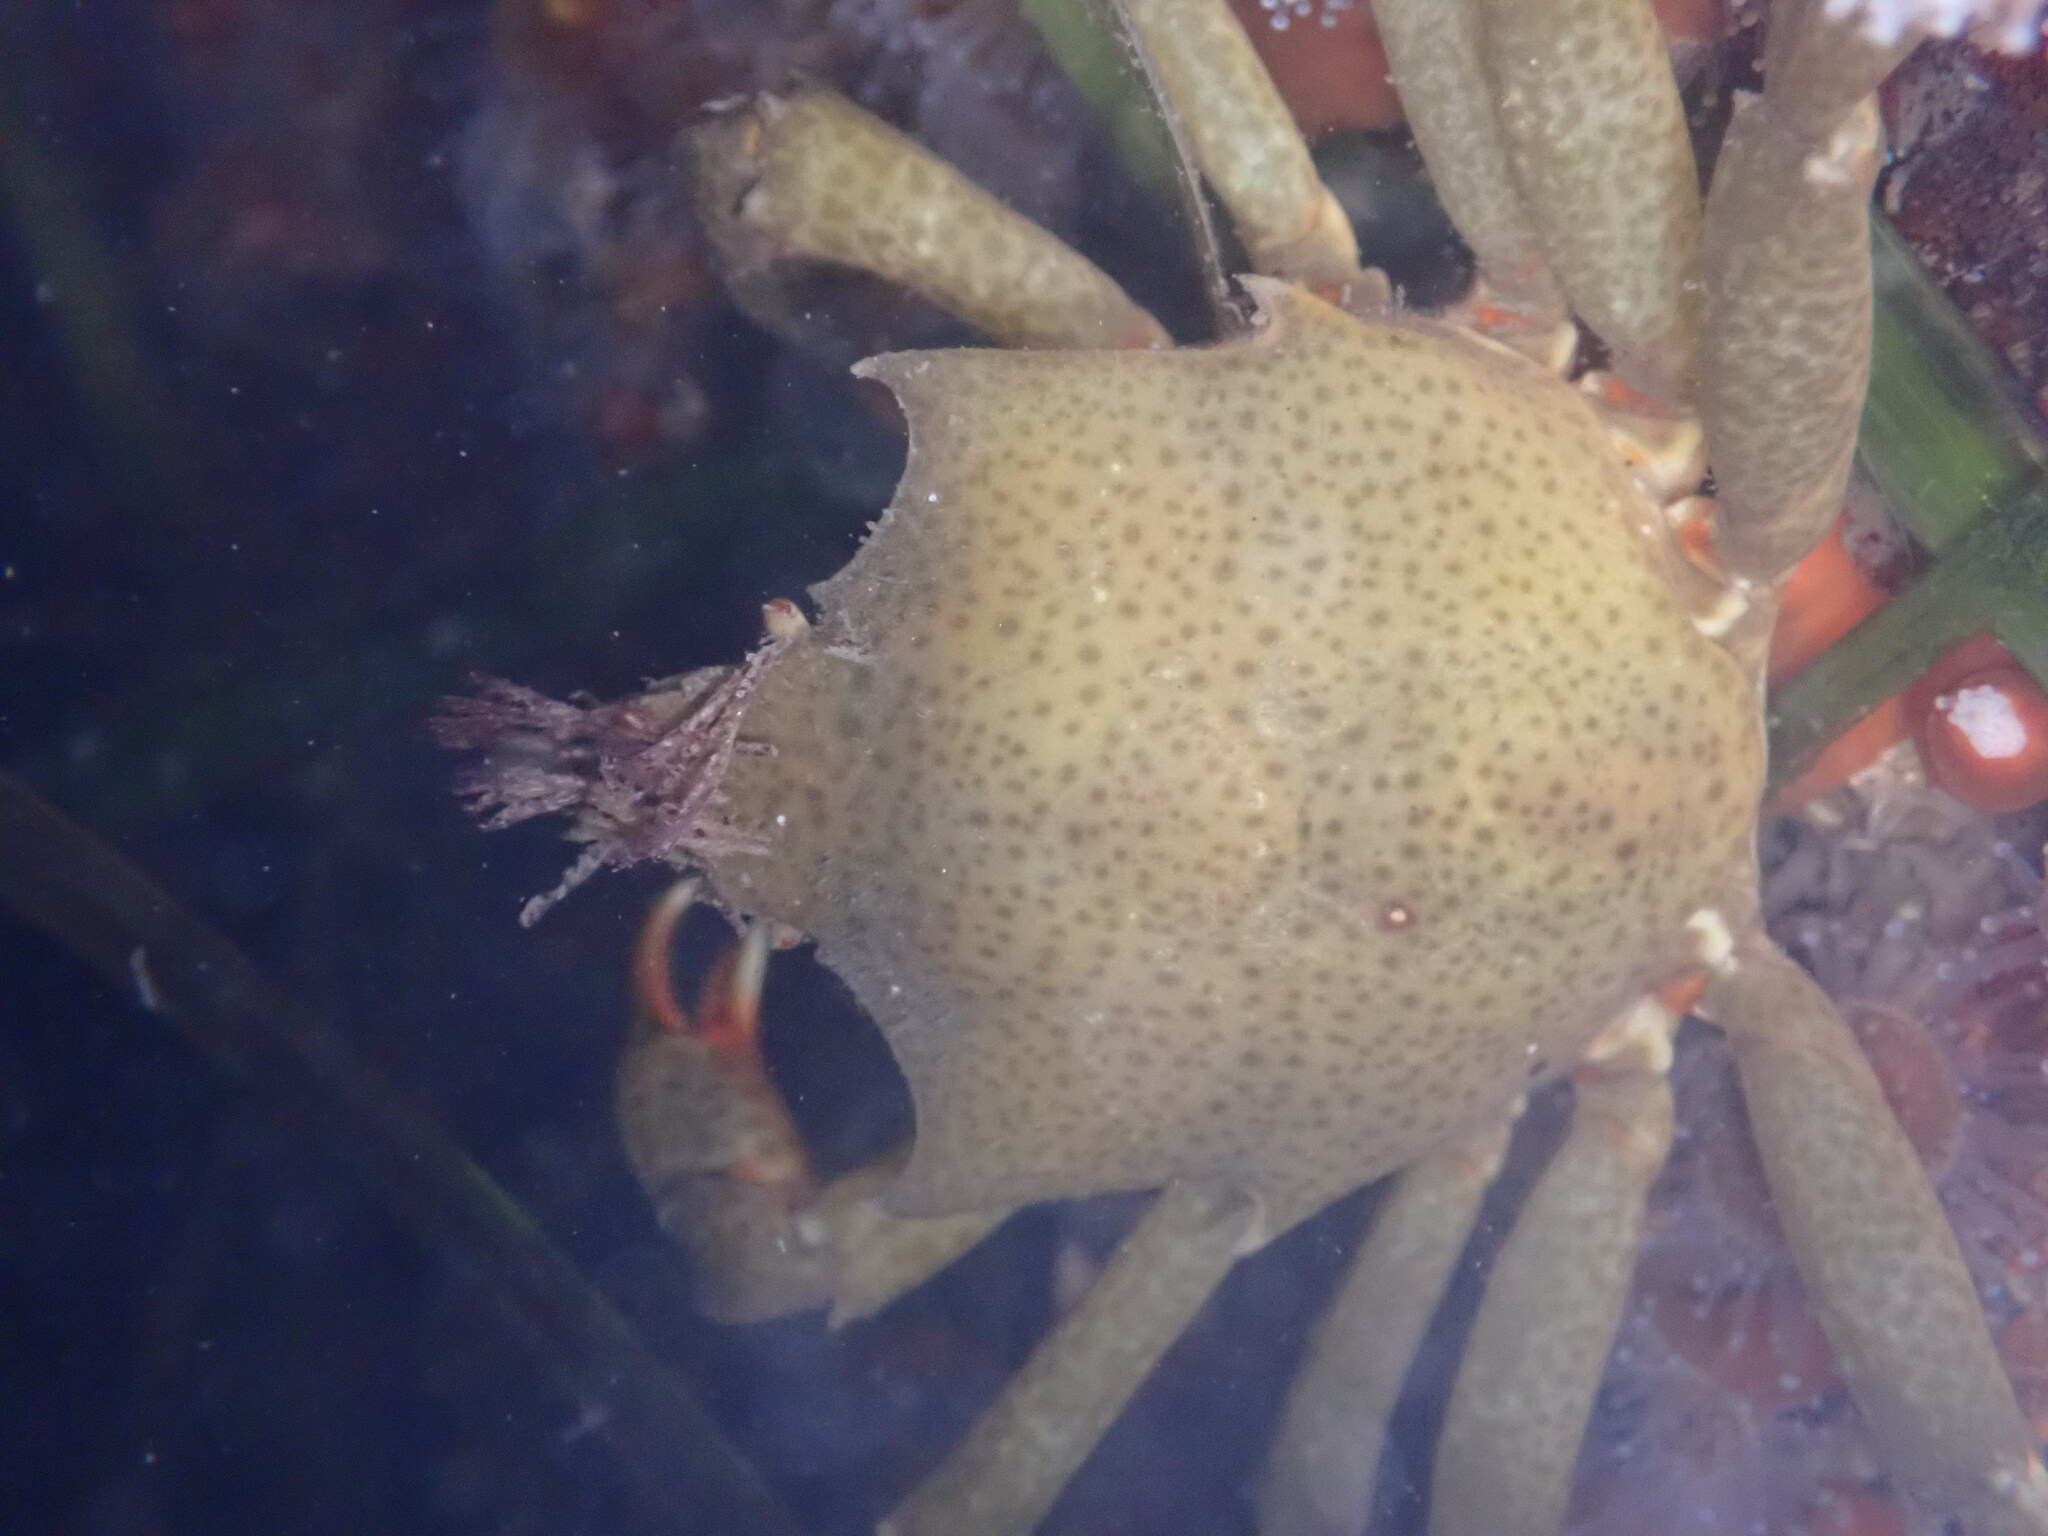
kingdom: Animalia
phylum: Arthropoda
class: Malacostraca
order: Decapoda
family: Epialtidae
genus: Pugettia
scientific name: Pugettia producta
